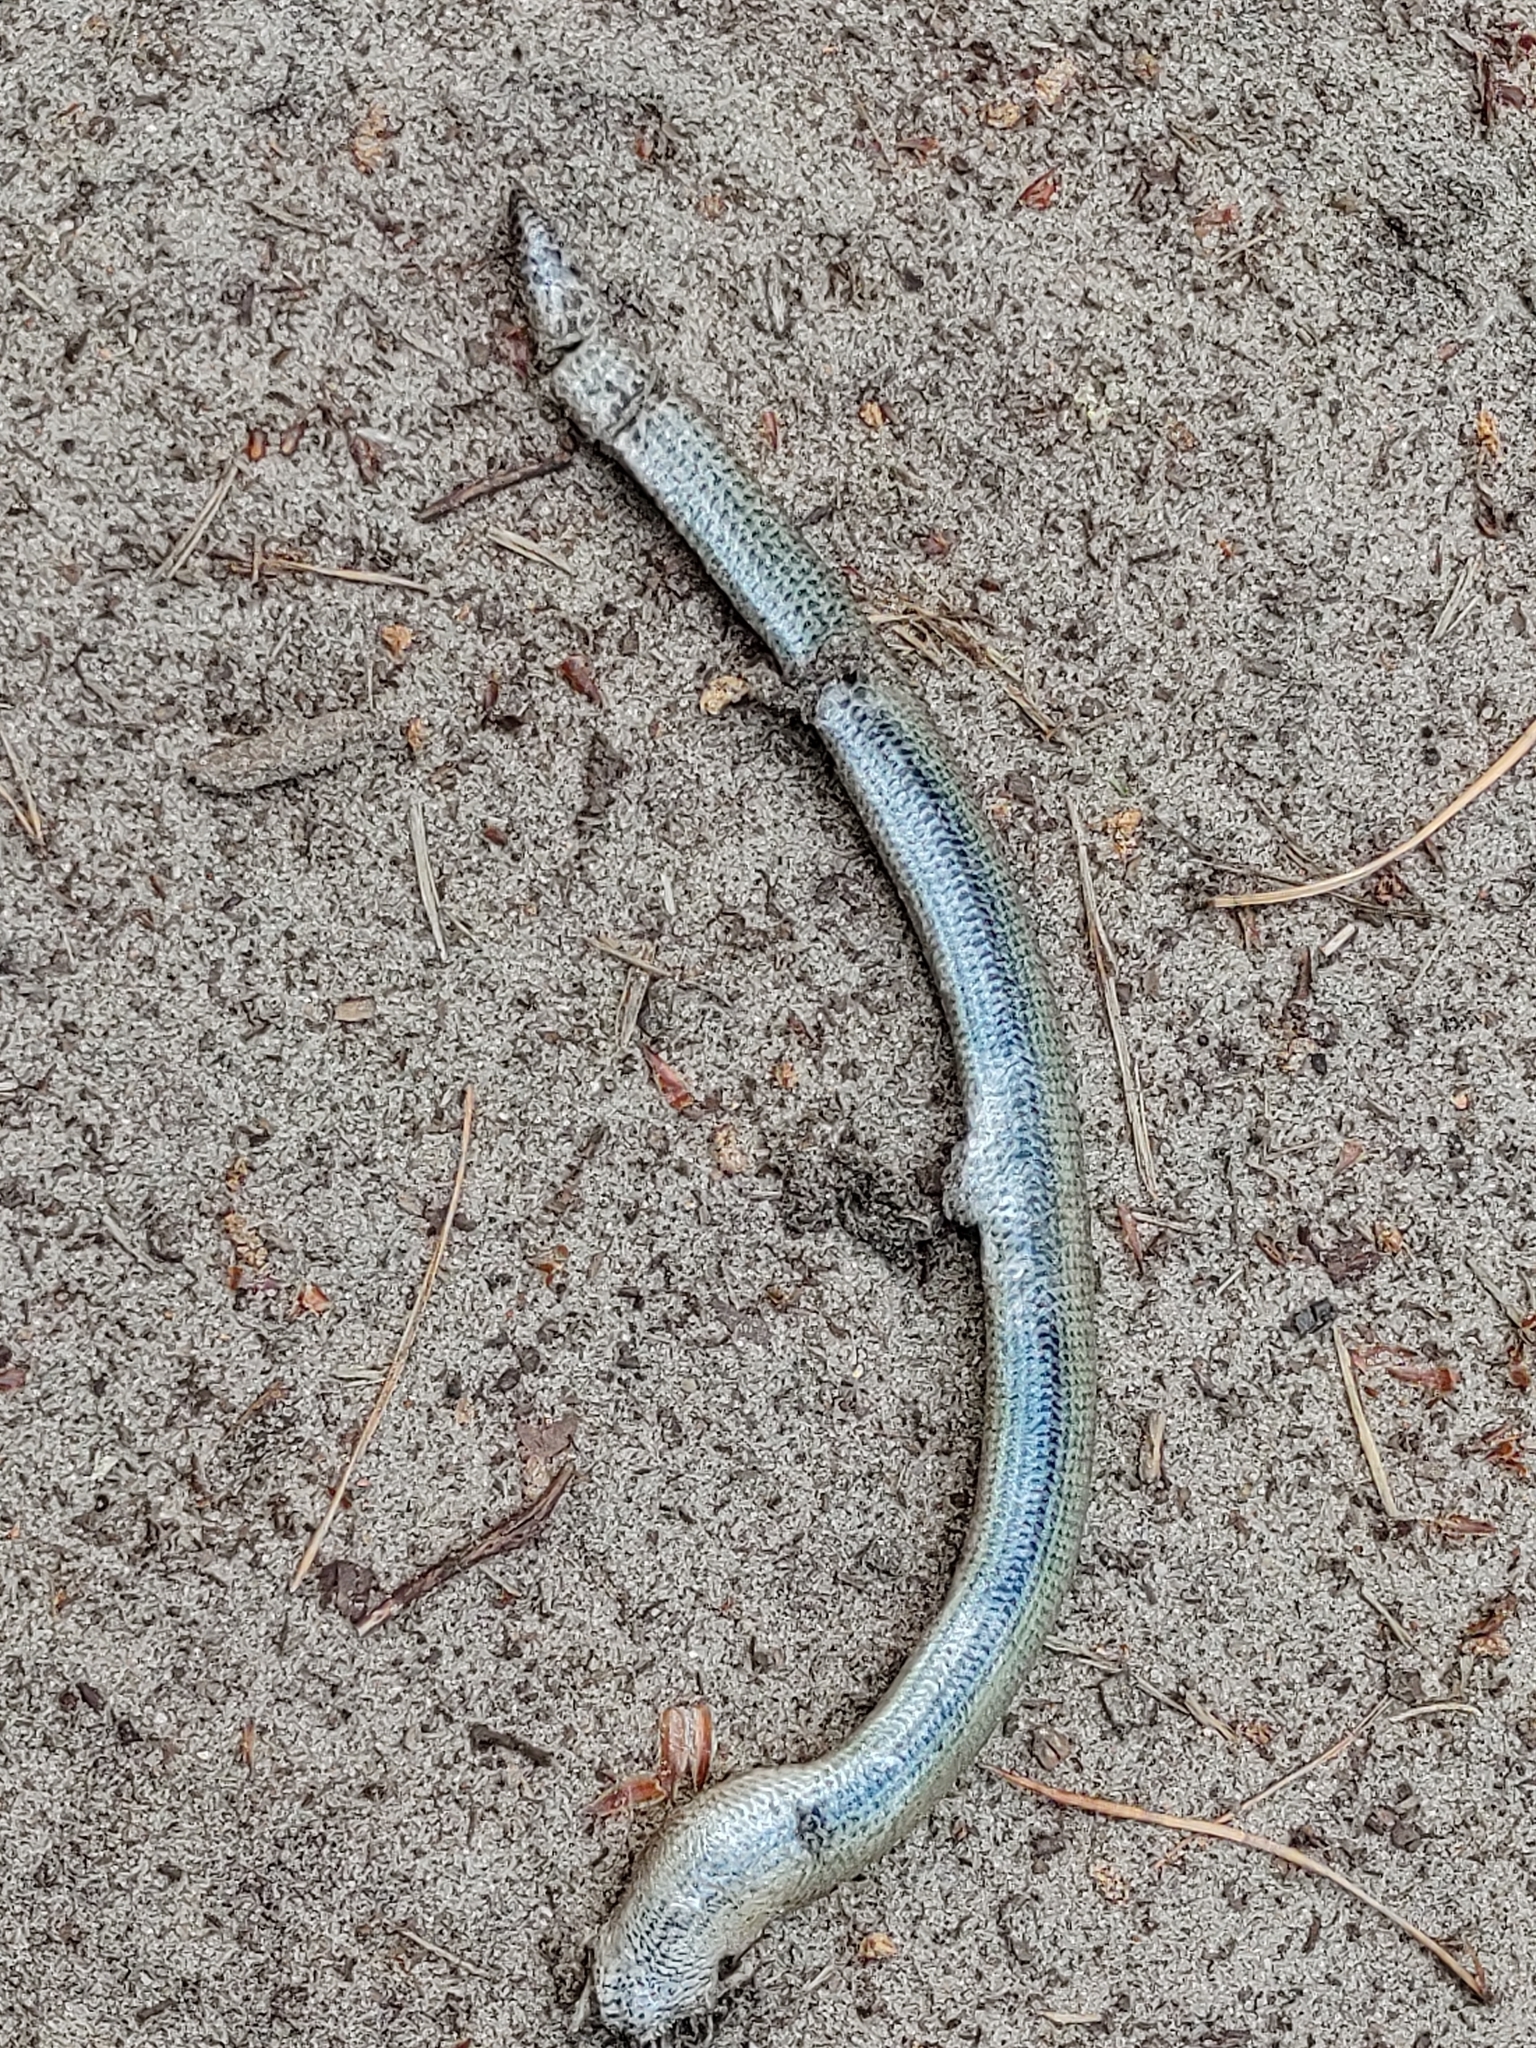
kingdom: Animalia
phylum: Chordata
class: Squamata
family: Anguidae
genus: Anguis
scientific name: Anguis
